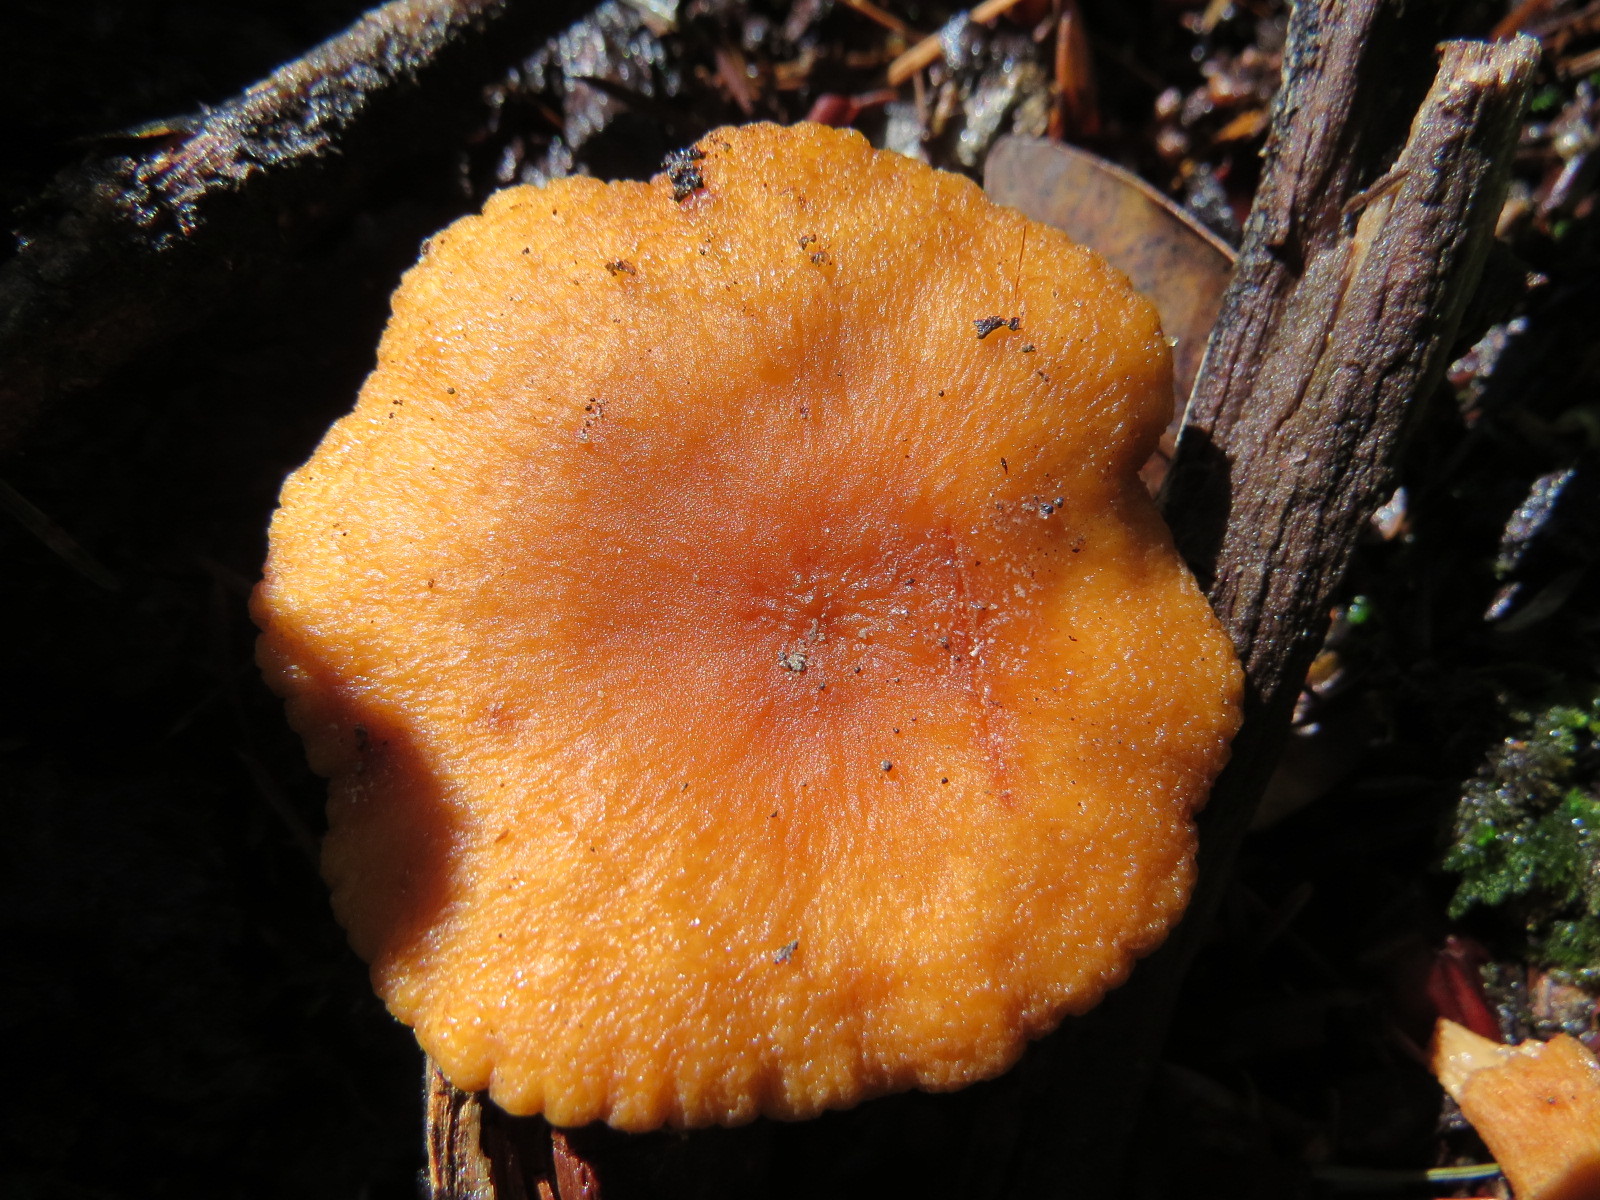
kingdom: Fungi
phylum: Basidiomycota
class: Agaricomycetes
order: Russulales
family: Russulaceae
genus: Lactarius
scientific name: Lactarius rubidus
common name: Candy cap
